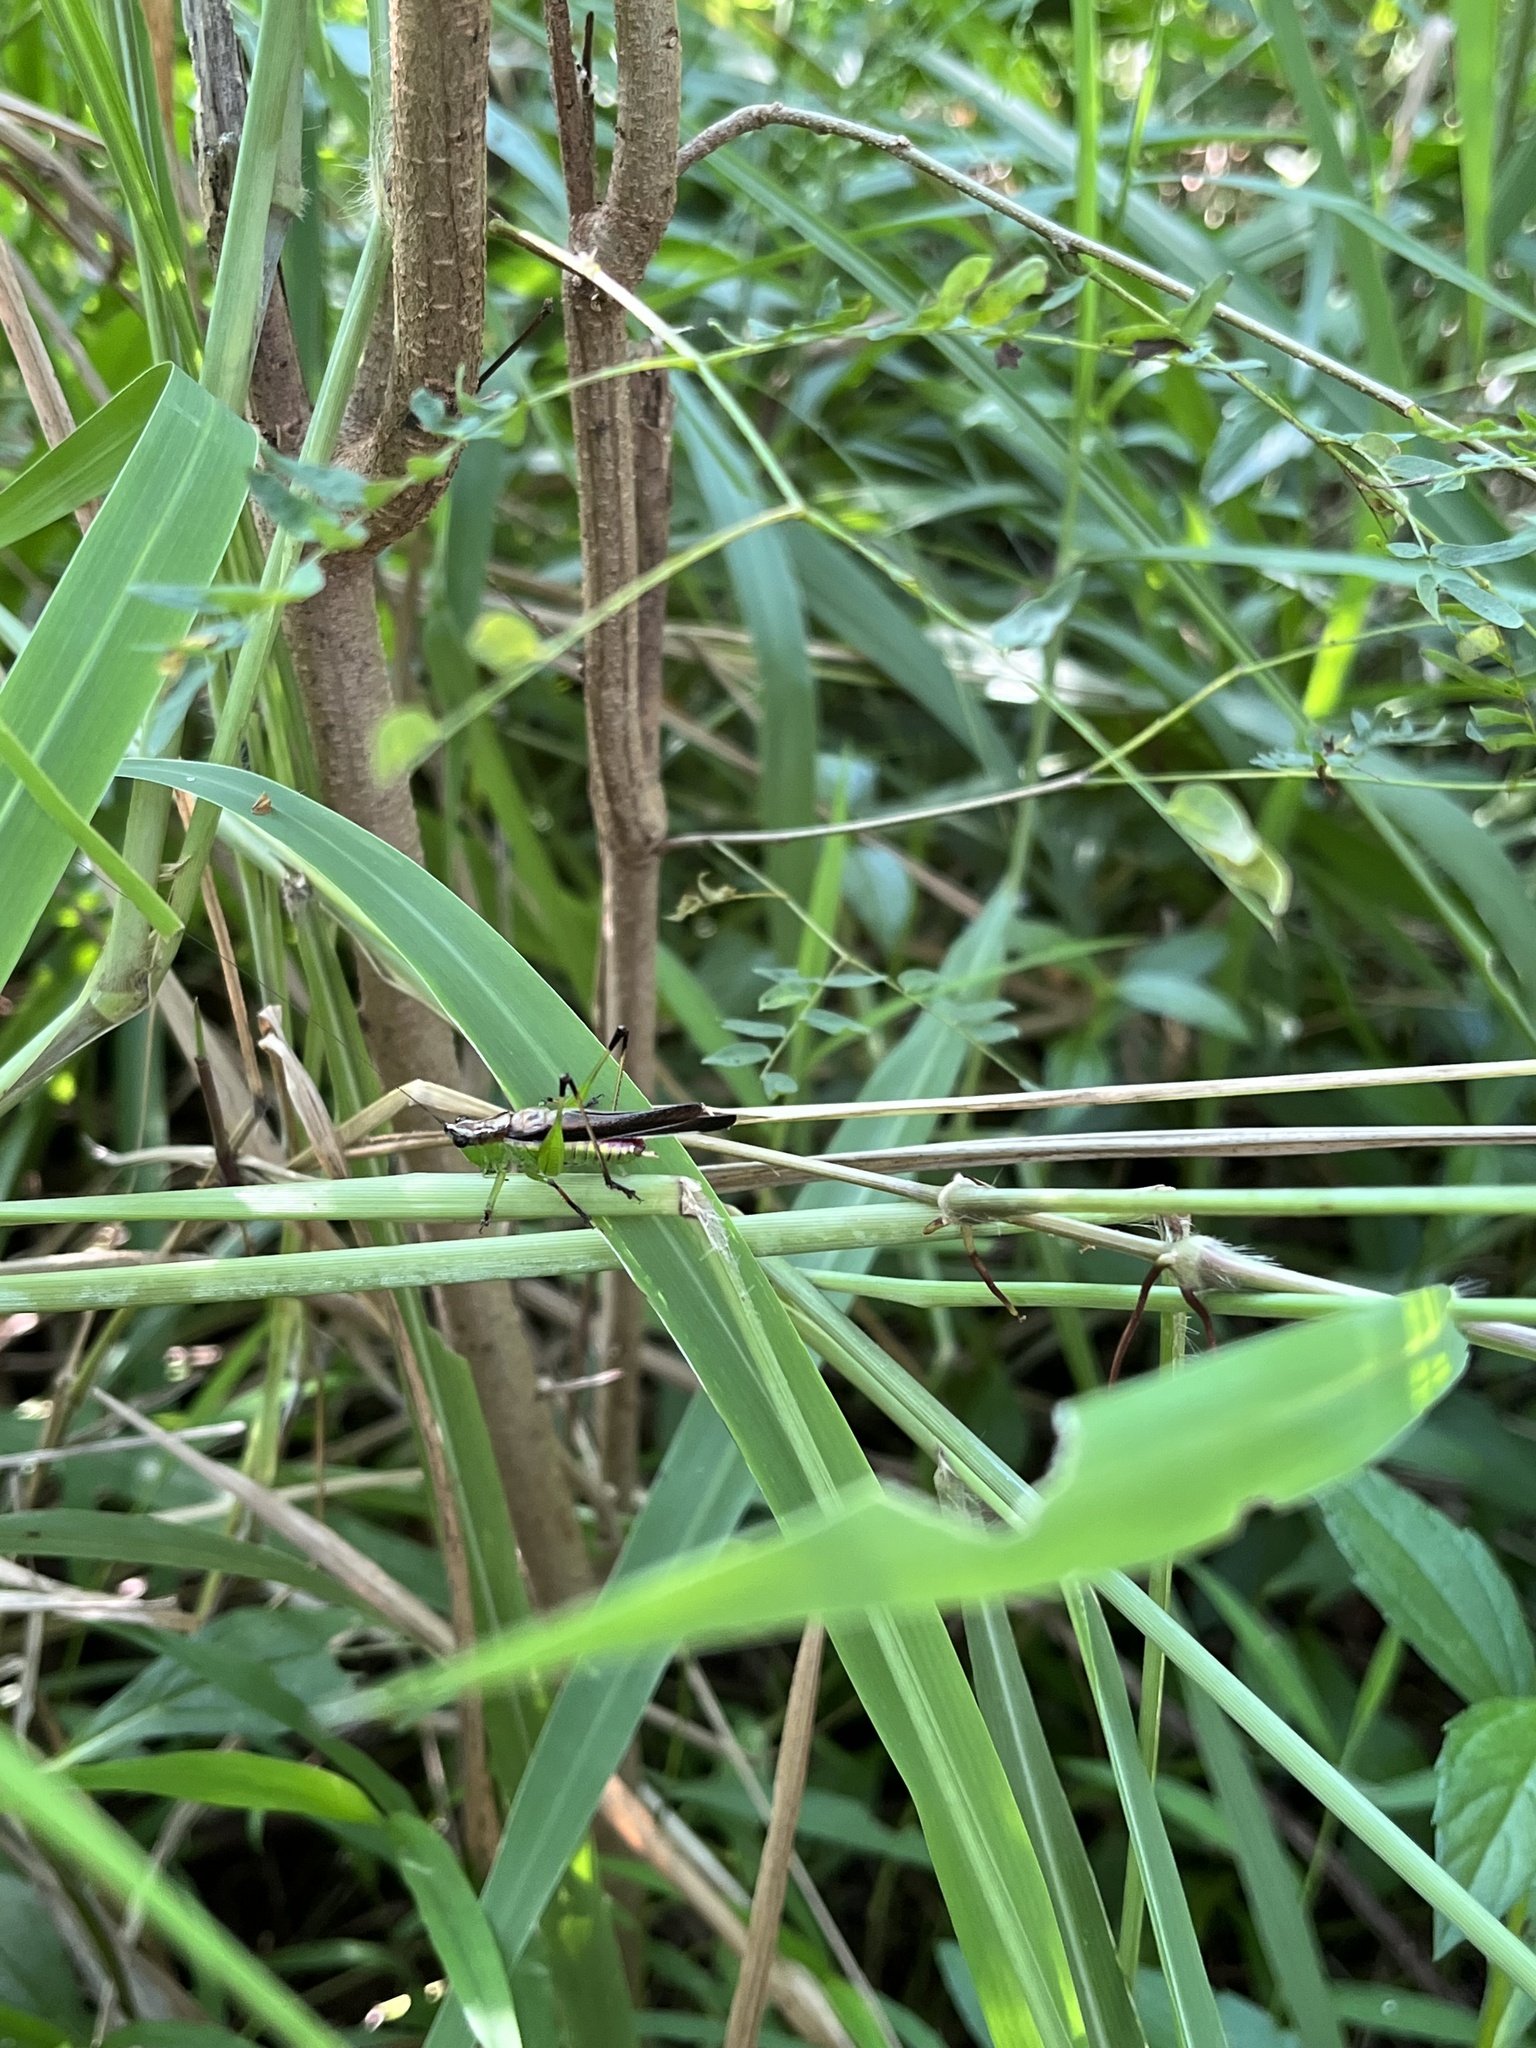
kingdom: Animalia
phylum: Arthropoda
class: Insecta
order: Orthoptera
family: Tettigoniidae
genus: Conocephalus
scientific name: Conocephalus melaenus
